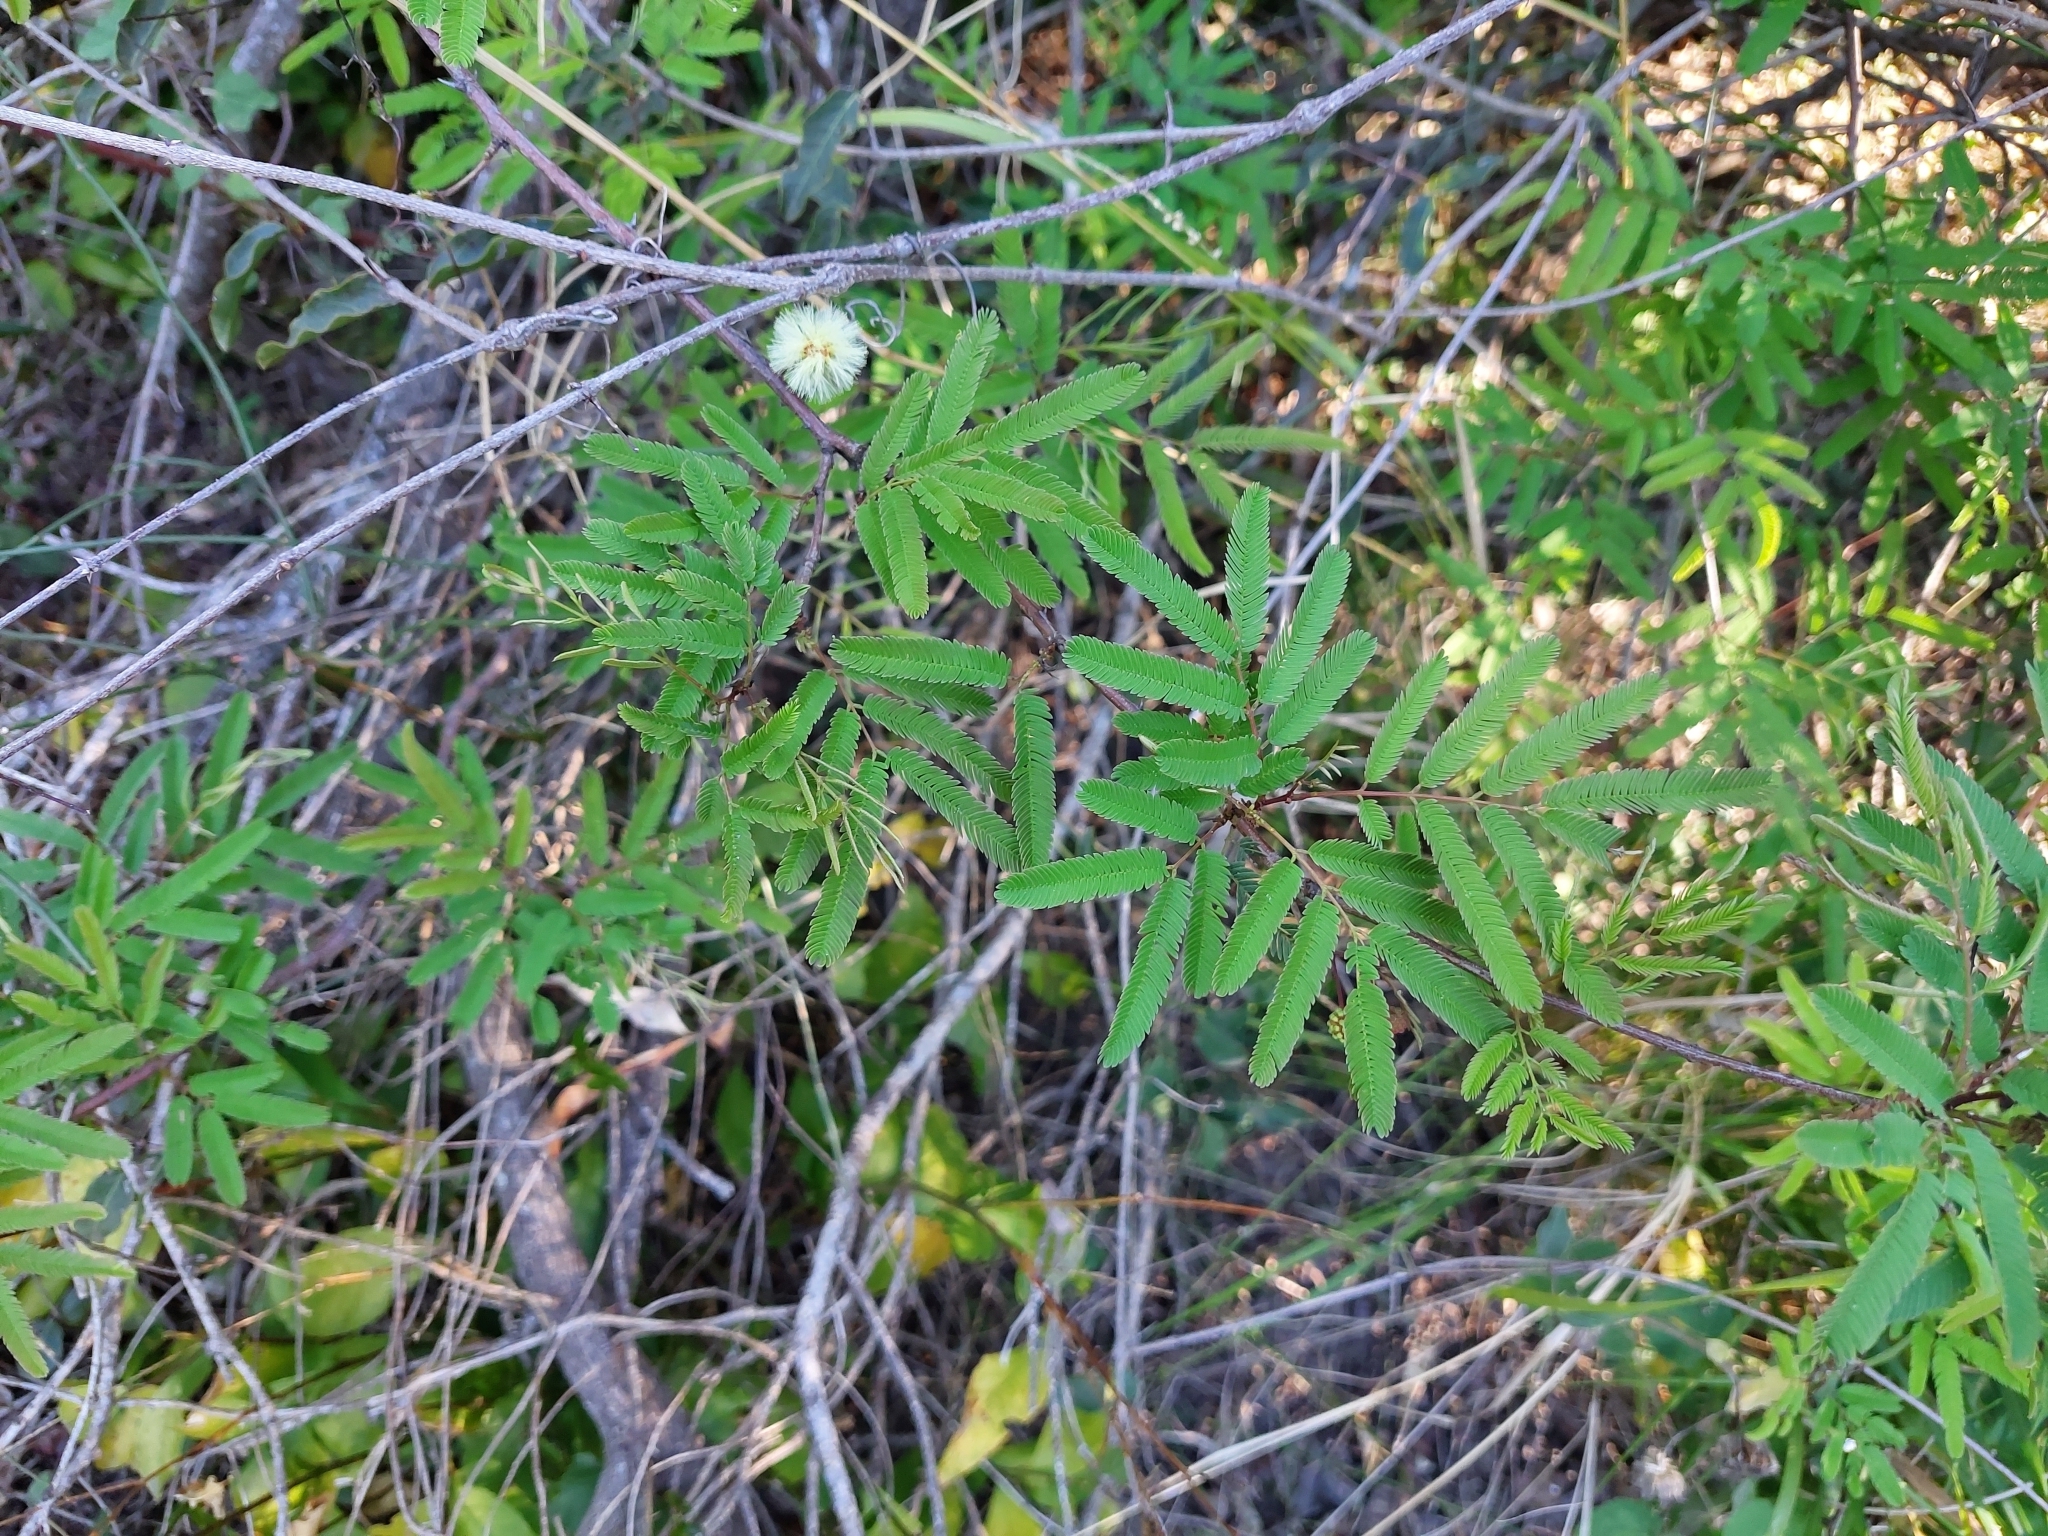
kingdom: Plantae
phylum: Tracheophyta
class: Magnoliopsida
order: Fabales
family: Fabaceae
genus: Senegalia
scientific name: Senegalia praecox
